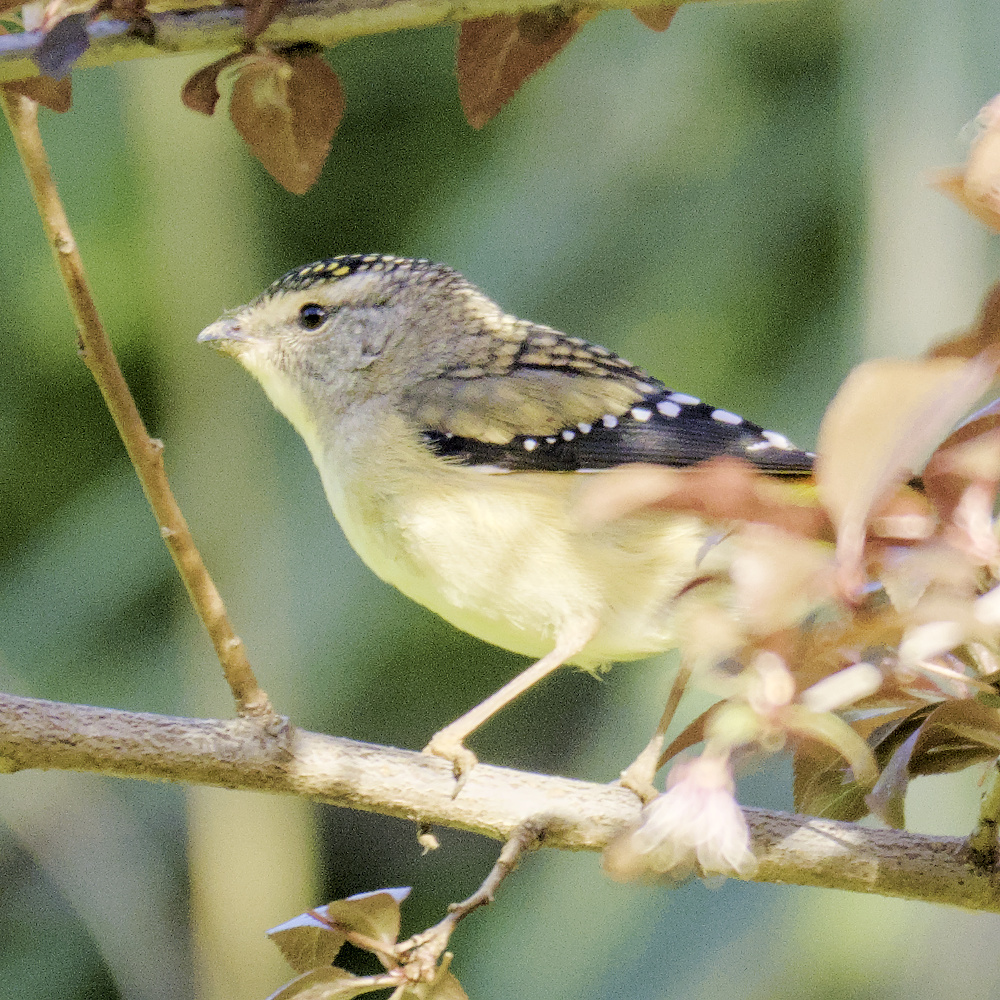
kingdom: Animalia
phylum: Chordata
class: Aves
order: Passeriformes
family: Pardalotidae
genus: Pardalotus
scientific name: Pardalotus punctatus
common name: Spotted pardalote
